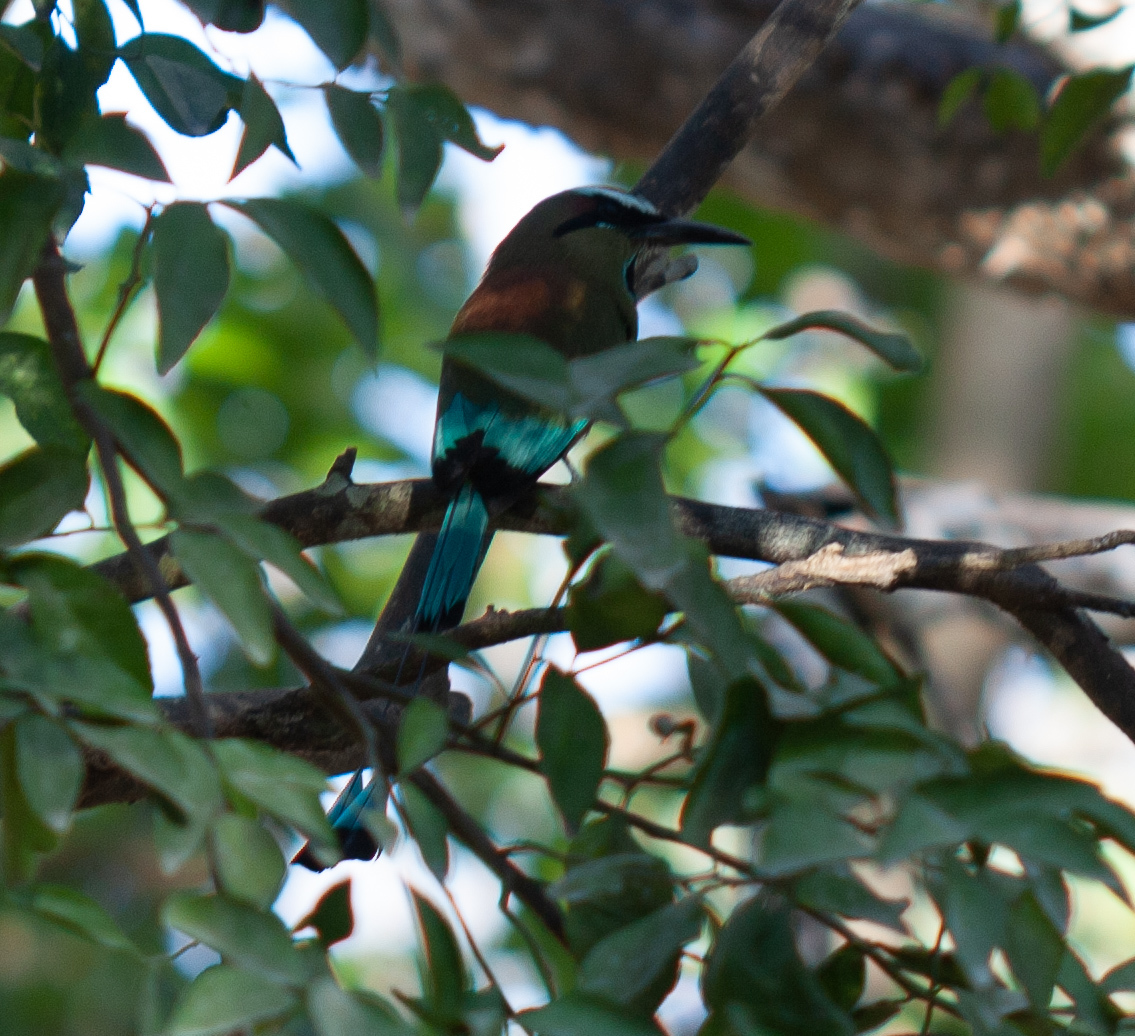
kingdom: Animalia
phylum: Chordata
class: Aves
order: Coraciiformes
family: Momotidae
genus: Eumomota
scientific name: Eumomota superciliosa
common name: Turquoise-browed motmot
